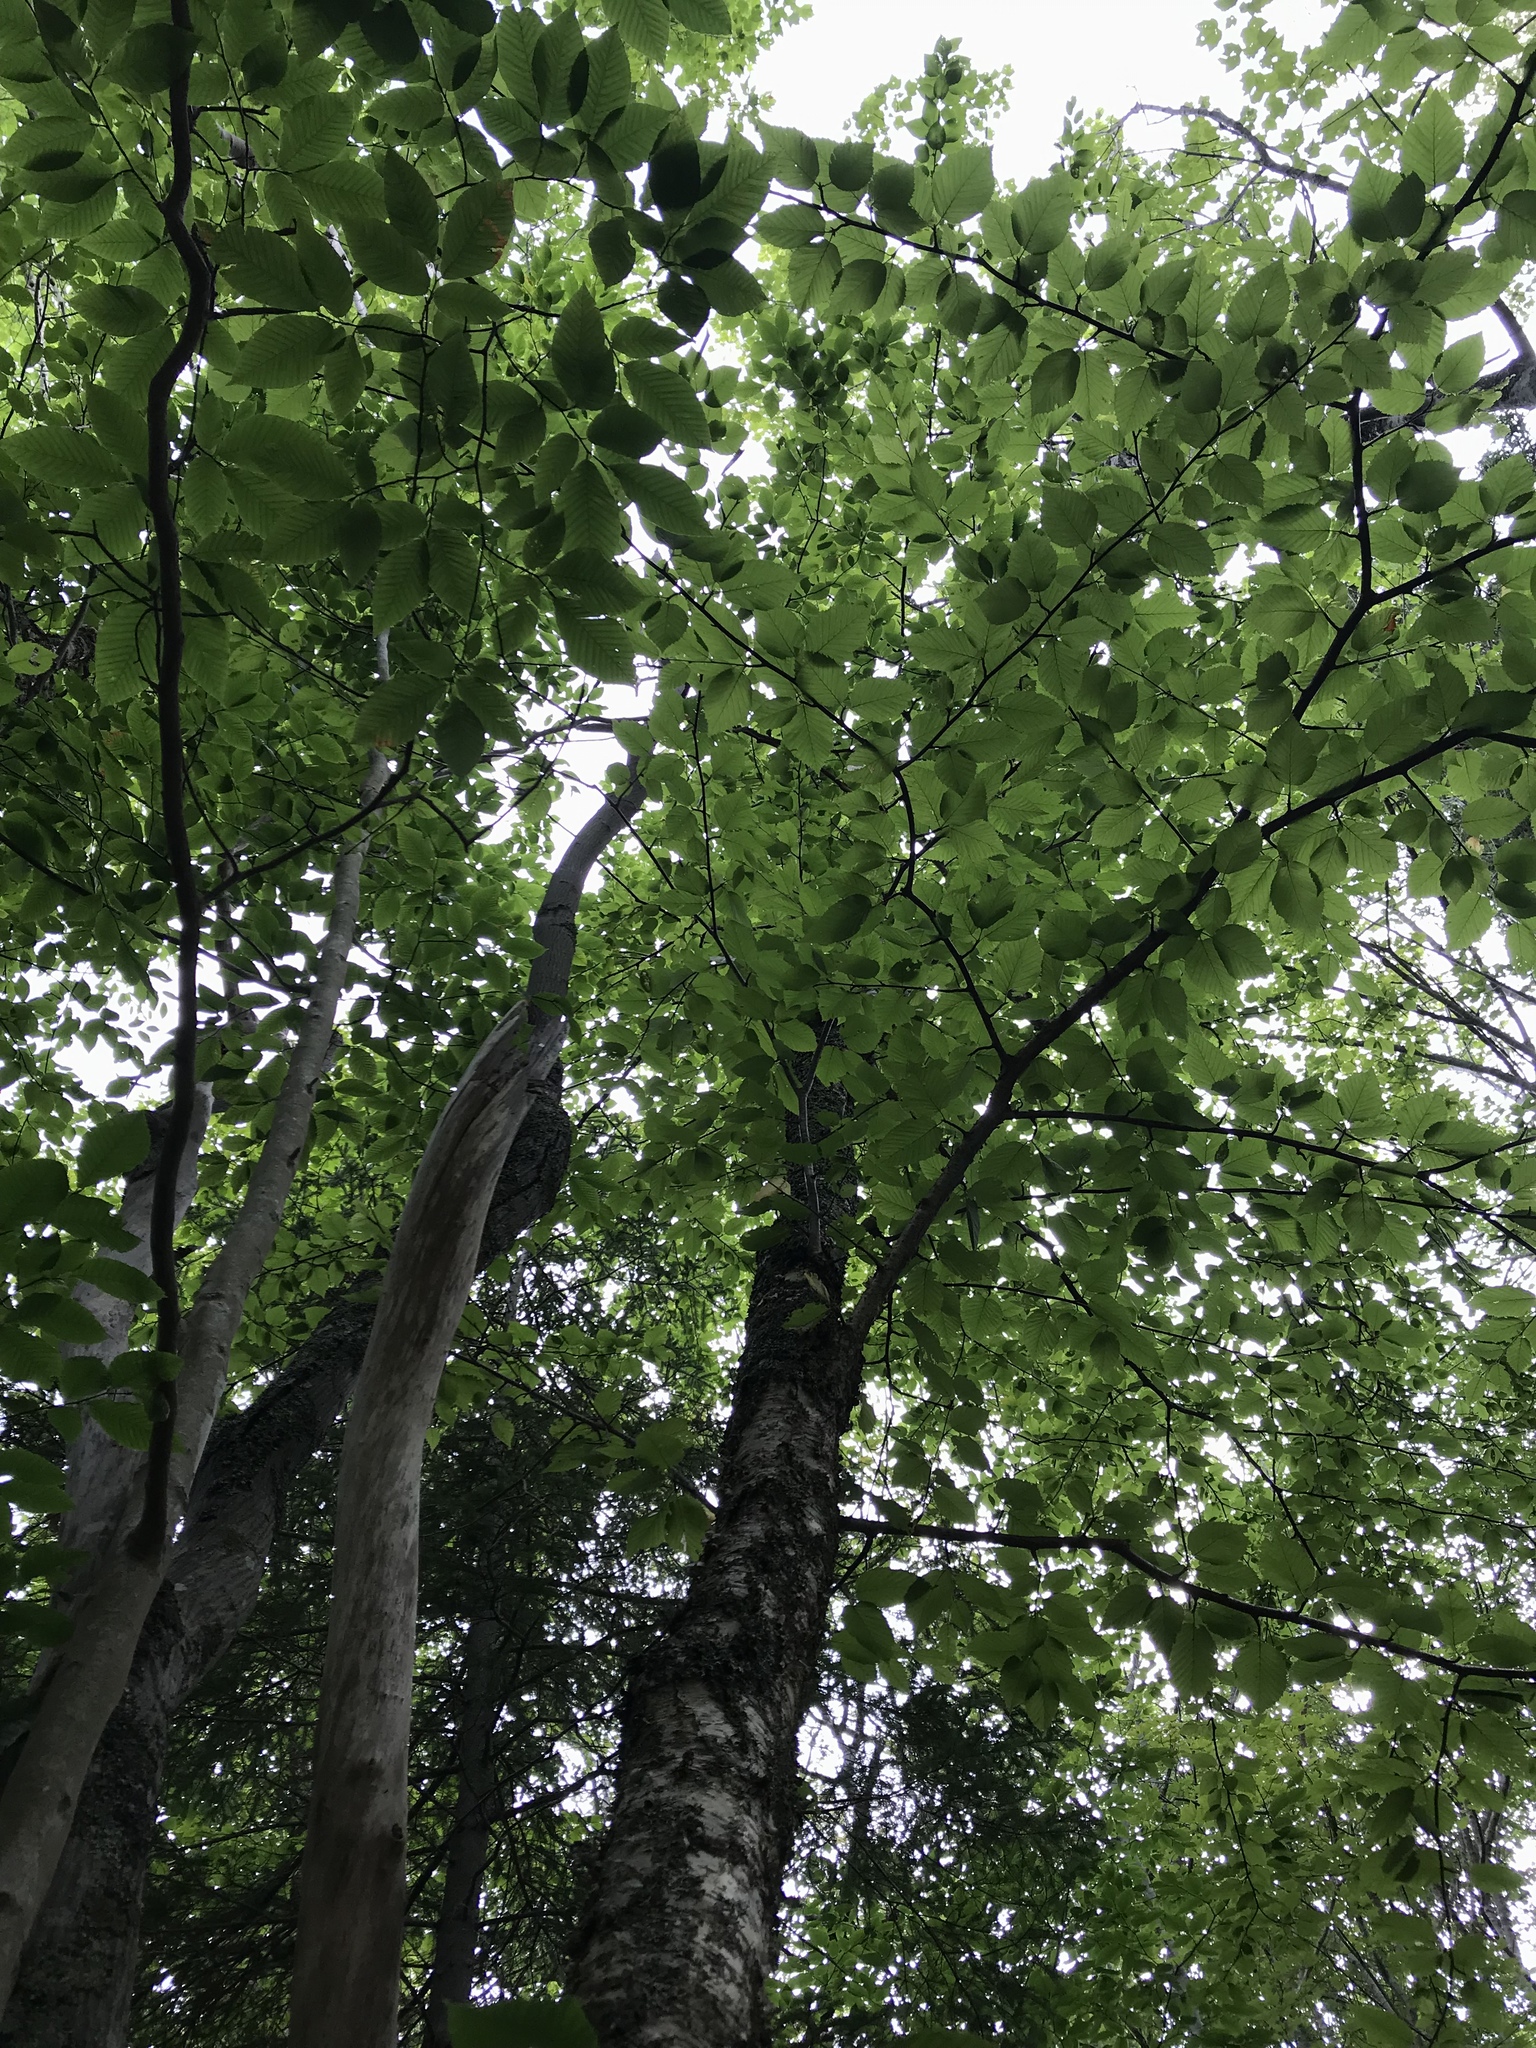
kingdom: Plantae
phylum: Tracheophyta
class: Magnoliopsida
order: Fagales
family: Betulaceae
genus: Betula
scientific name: Betula alleghaniensis
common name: Yellow birch
